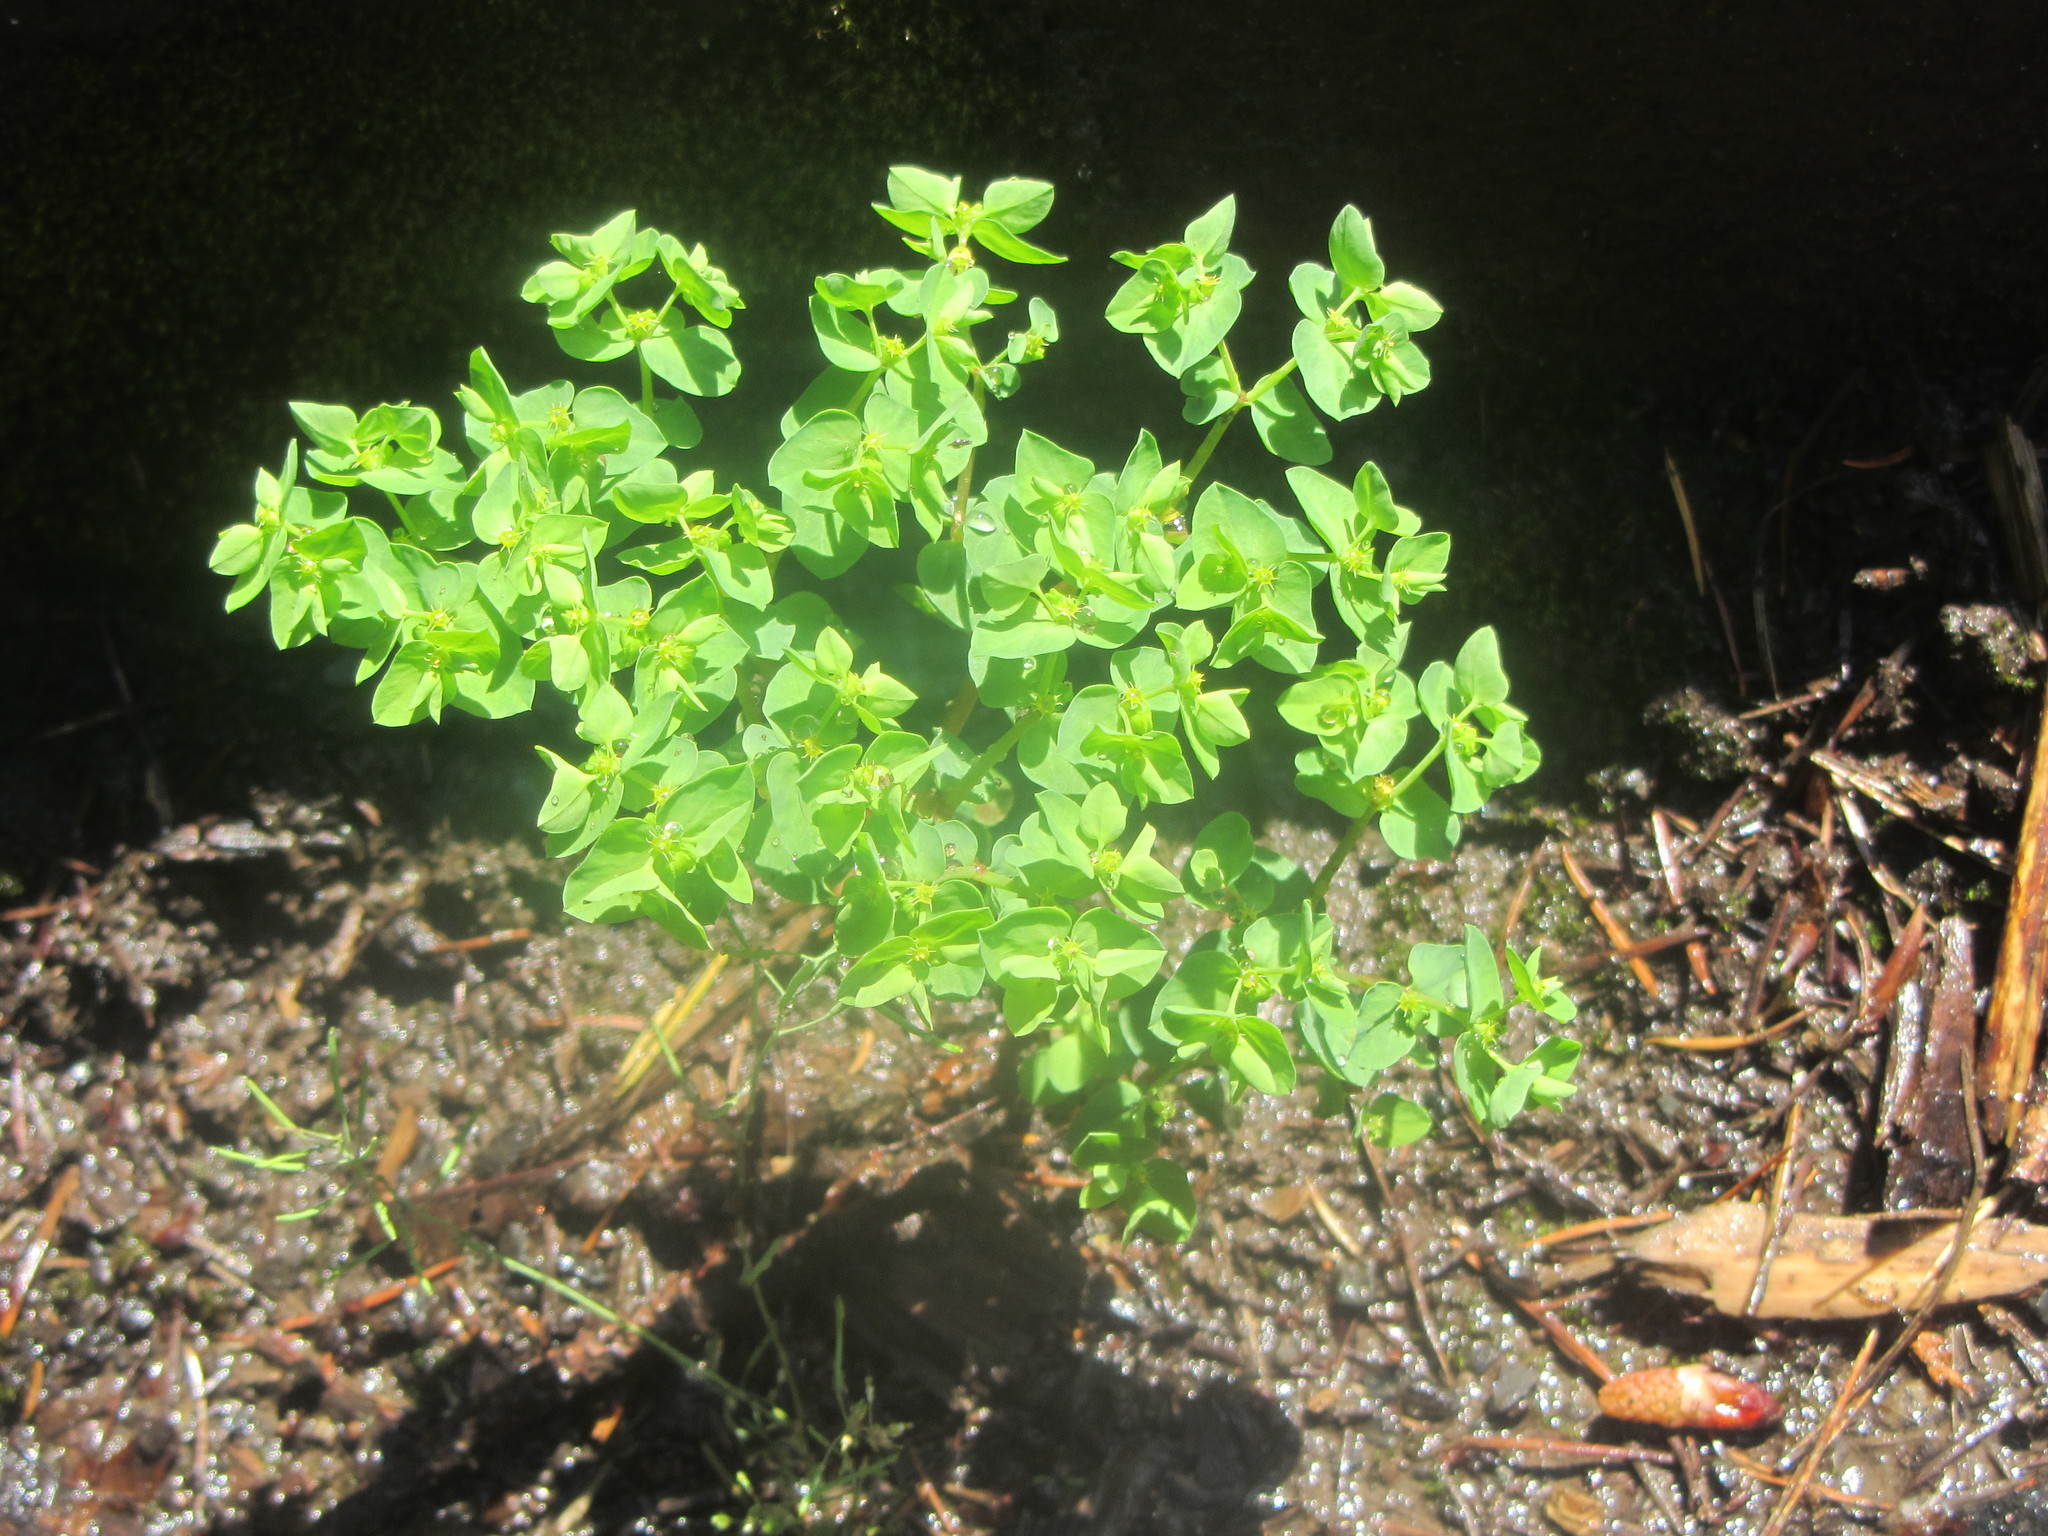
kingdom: Plantae
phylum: Tracheophyta
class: Magnoliopsida
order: Malpighiales
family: Euphorbiaceae
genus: Euphorbia
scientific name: Euphorbia peplus
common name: Petty spurge
